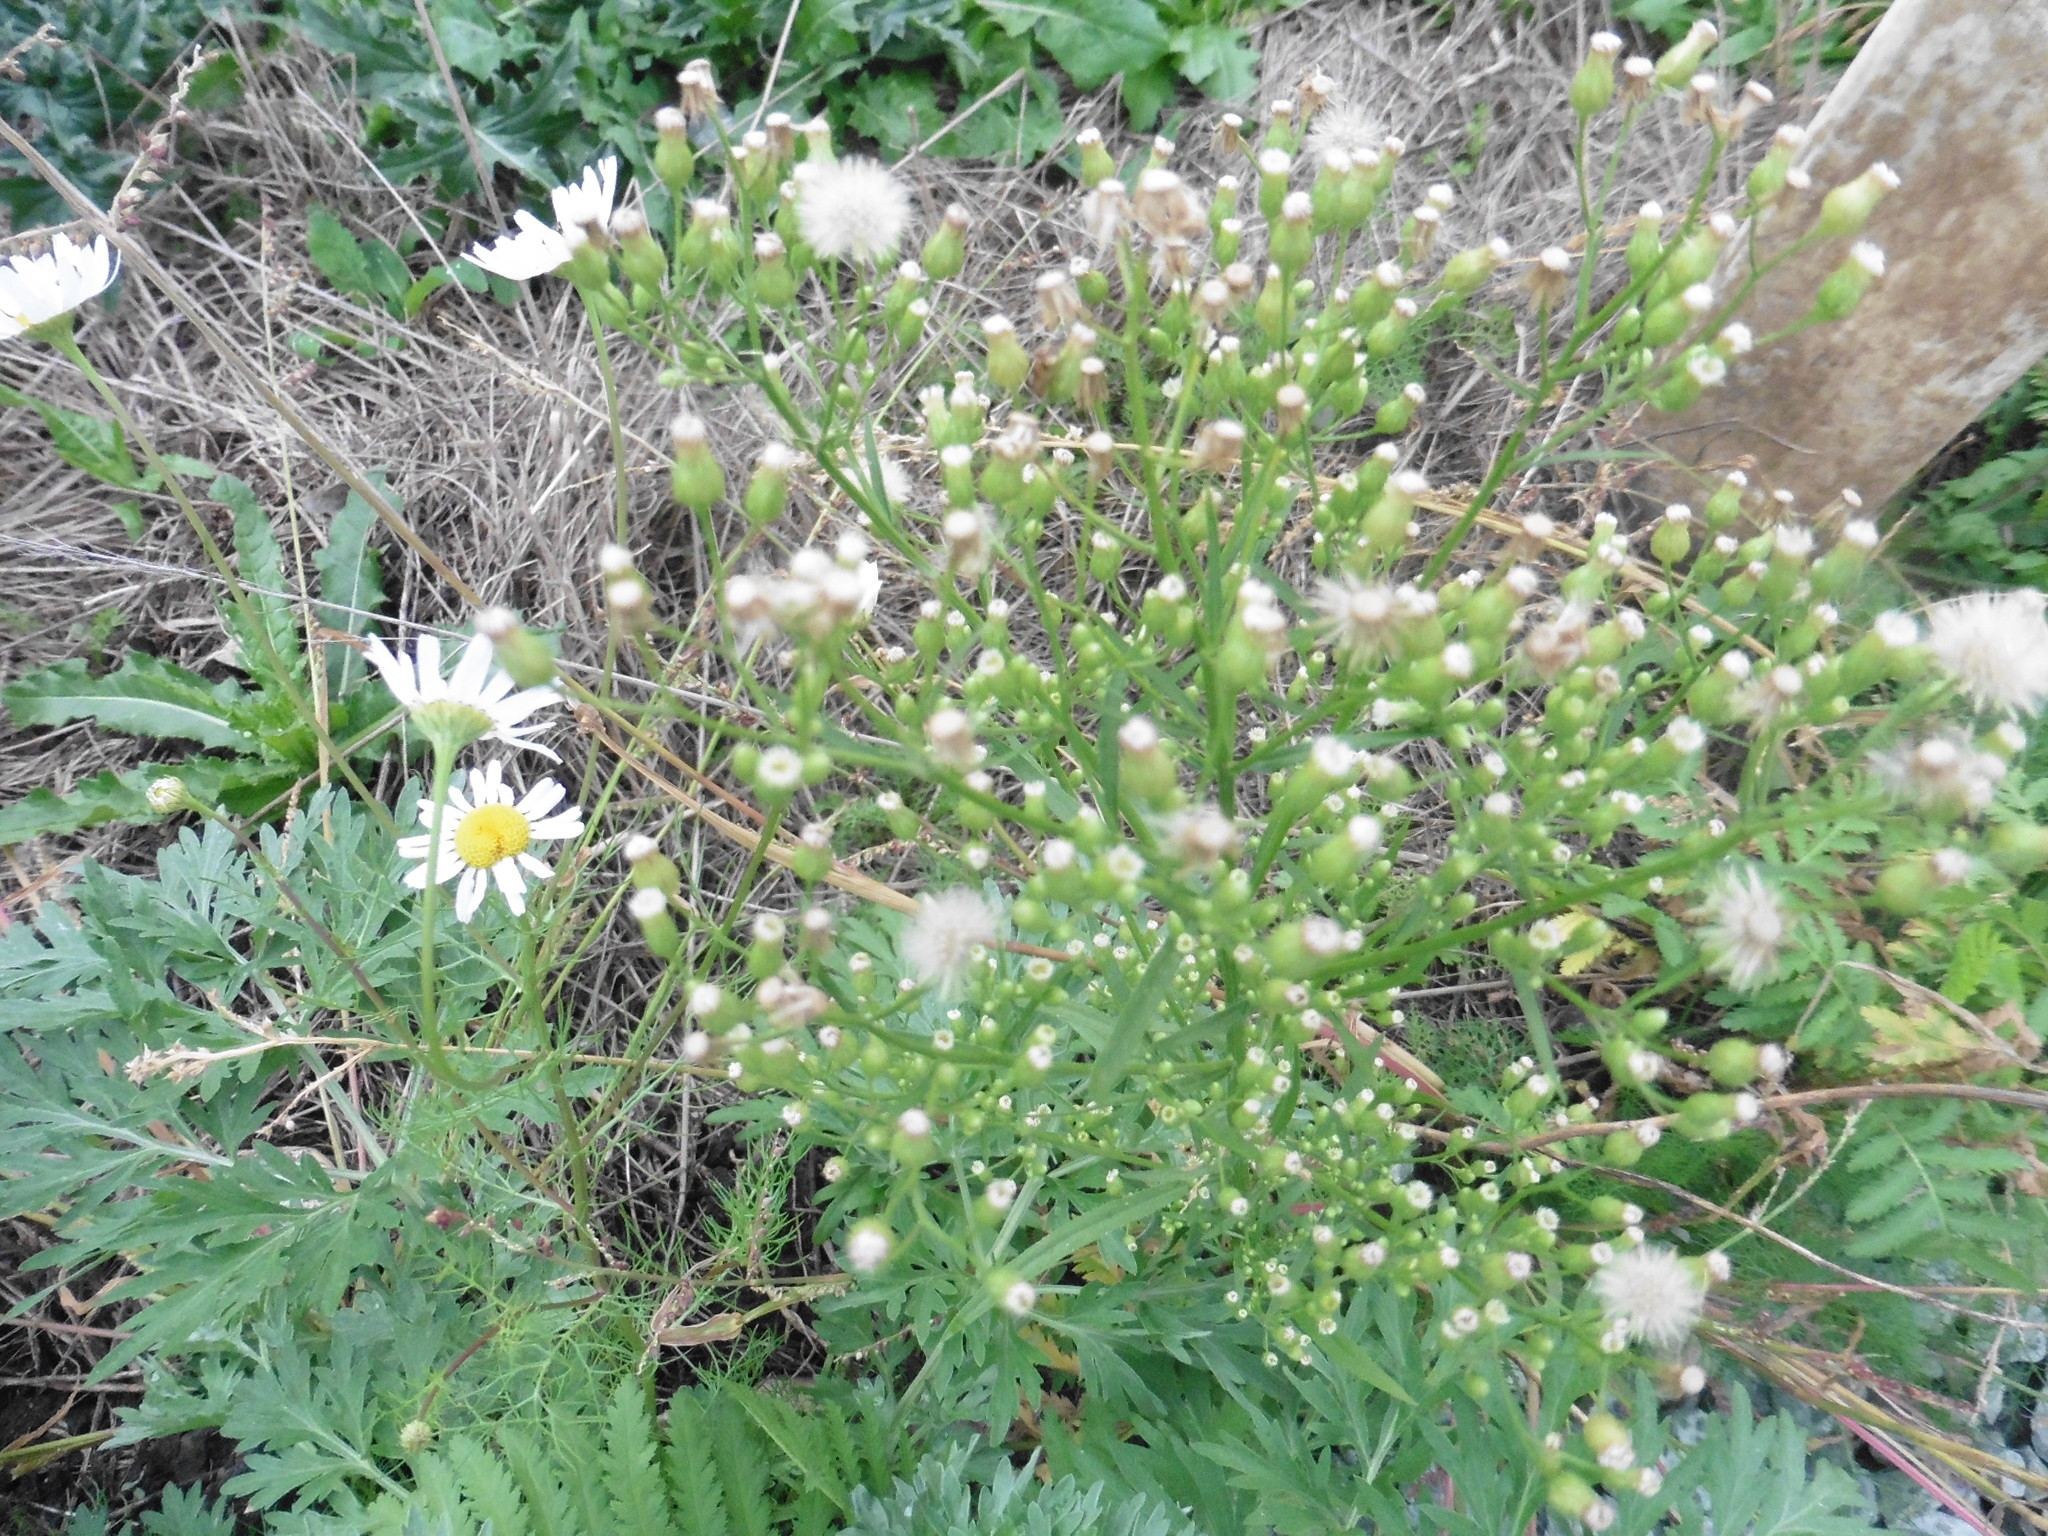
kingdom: Plantae
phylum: Tracheophyta
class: Magnoliopsida
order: Asterales
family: Asteraceae
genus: Erigeron
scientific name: Erigeron canadensis
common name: Canadian fleabane
